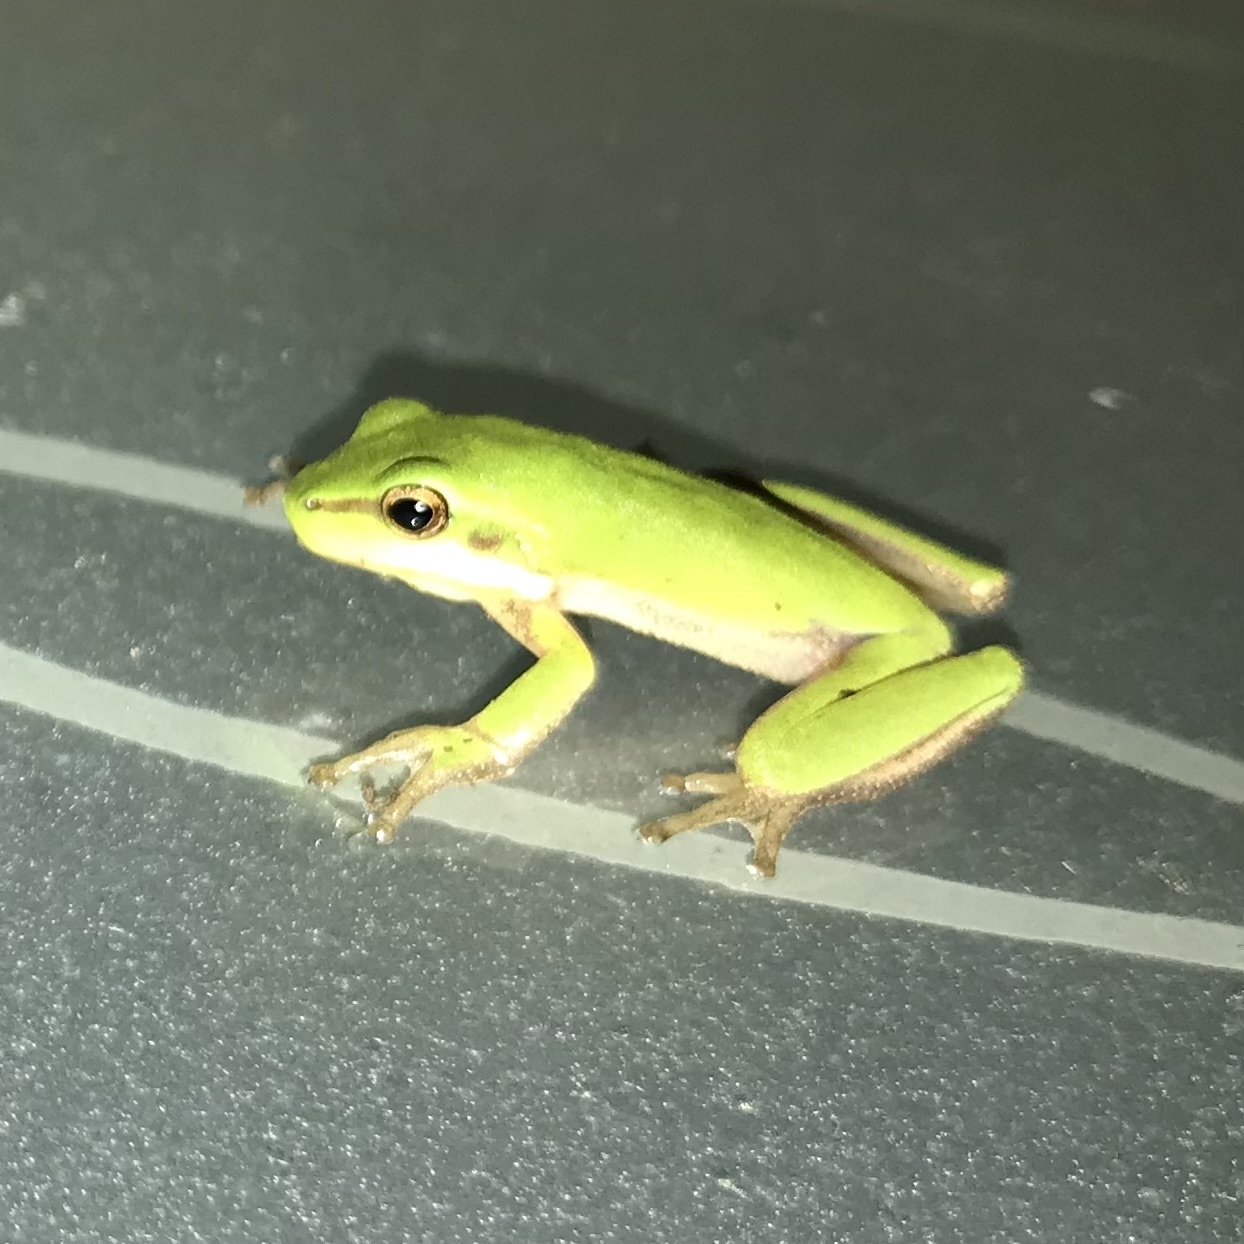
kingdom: Animalia
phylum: Chordata
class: Amphibia
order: Anura
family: Pelodryadidae
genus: Litoria
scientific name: Litoria fallax
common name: Eastern dwarf treefrog
